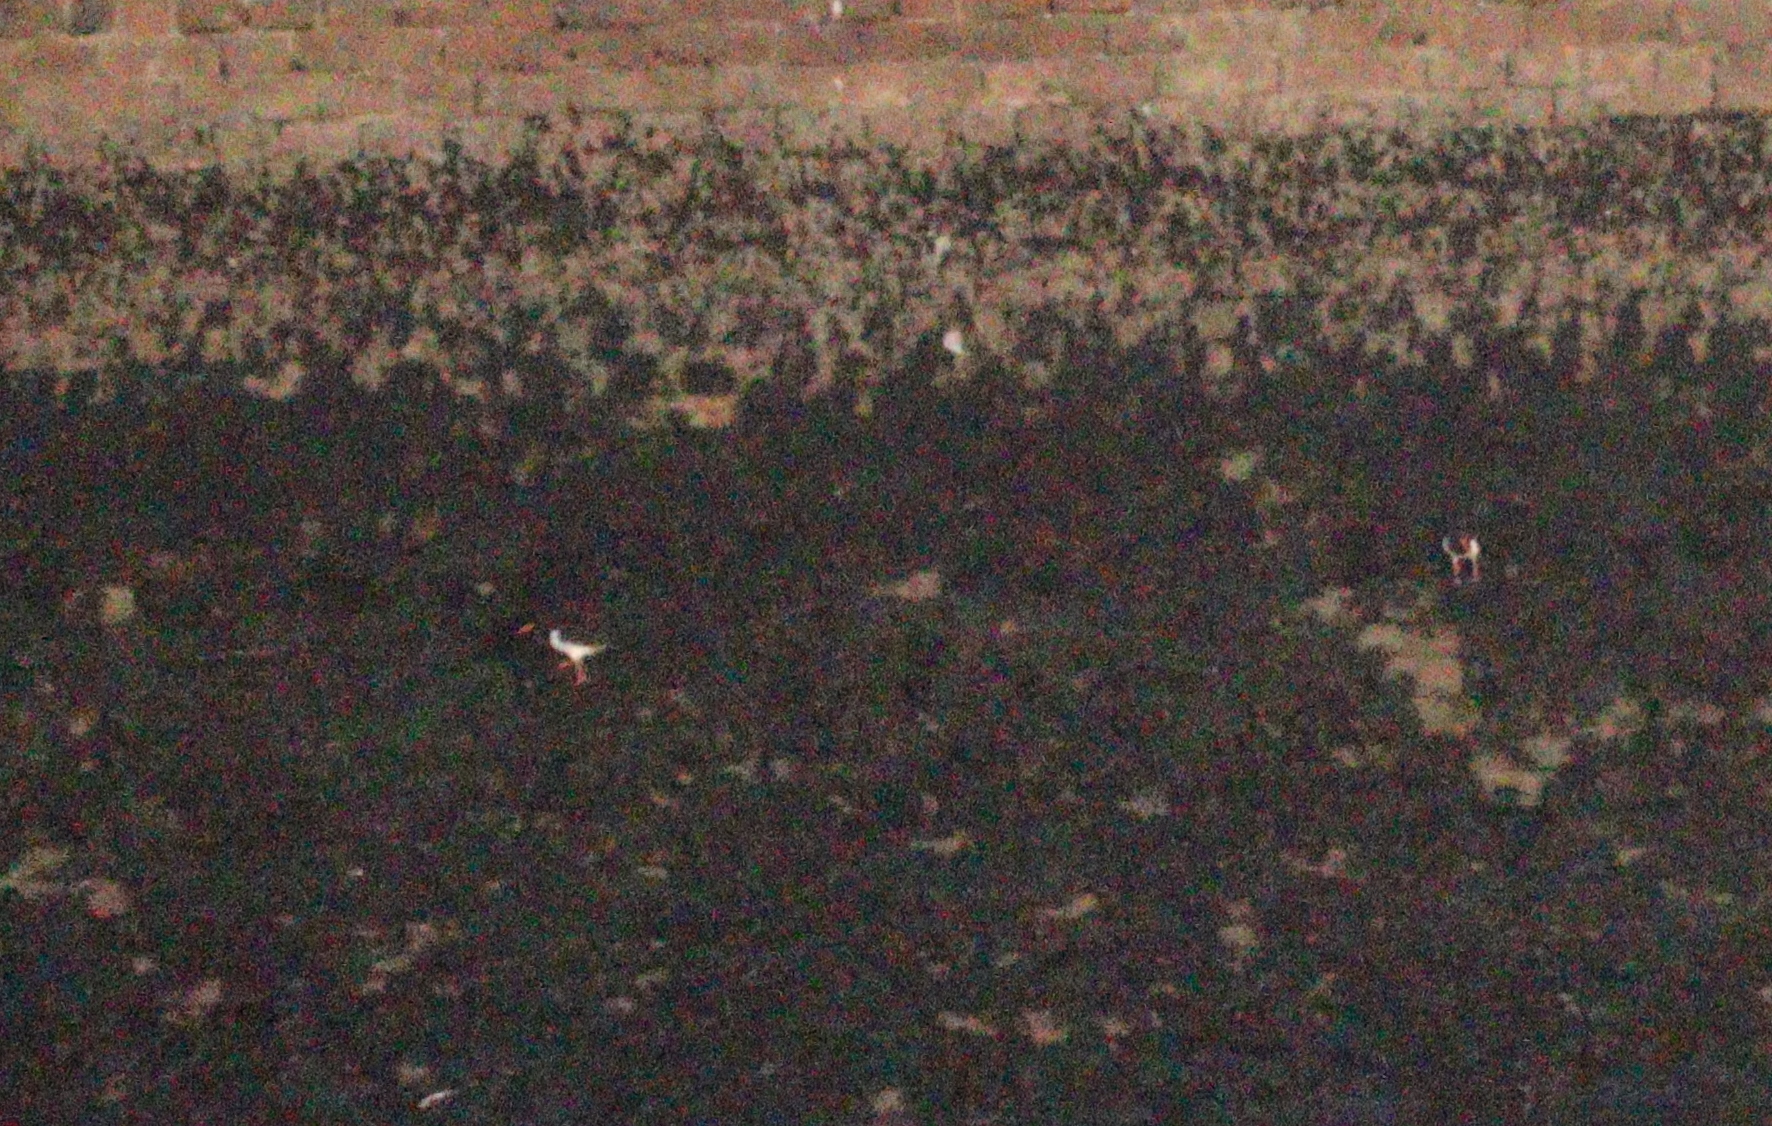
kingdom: Animalia
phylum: Chordata
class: Aves
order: Charadriiformes
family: Haematopodidae
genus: Haematopus
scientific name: Haematopus ostralegus
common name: Eurasian oystercatcher
